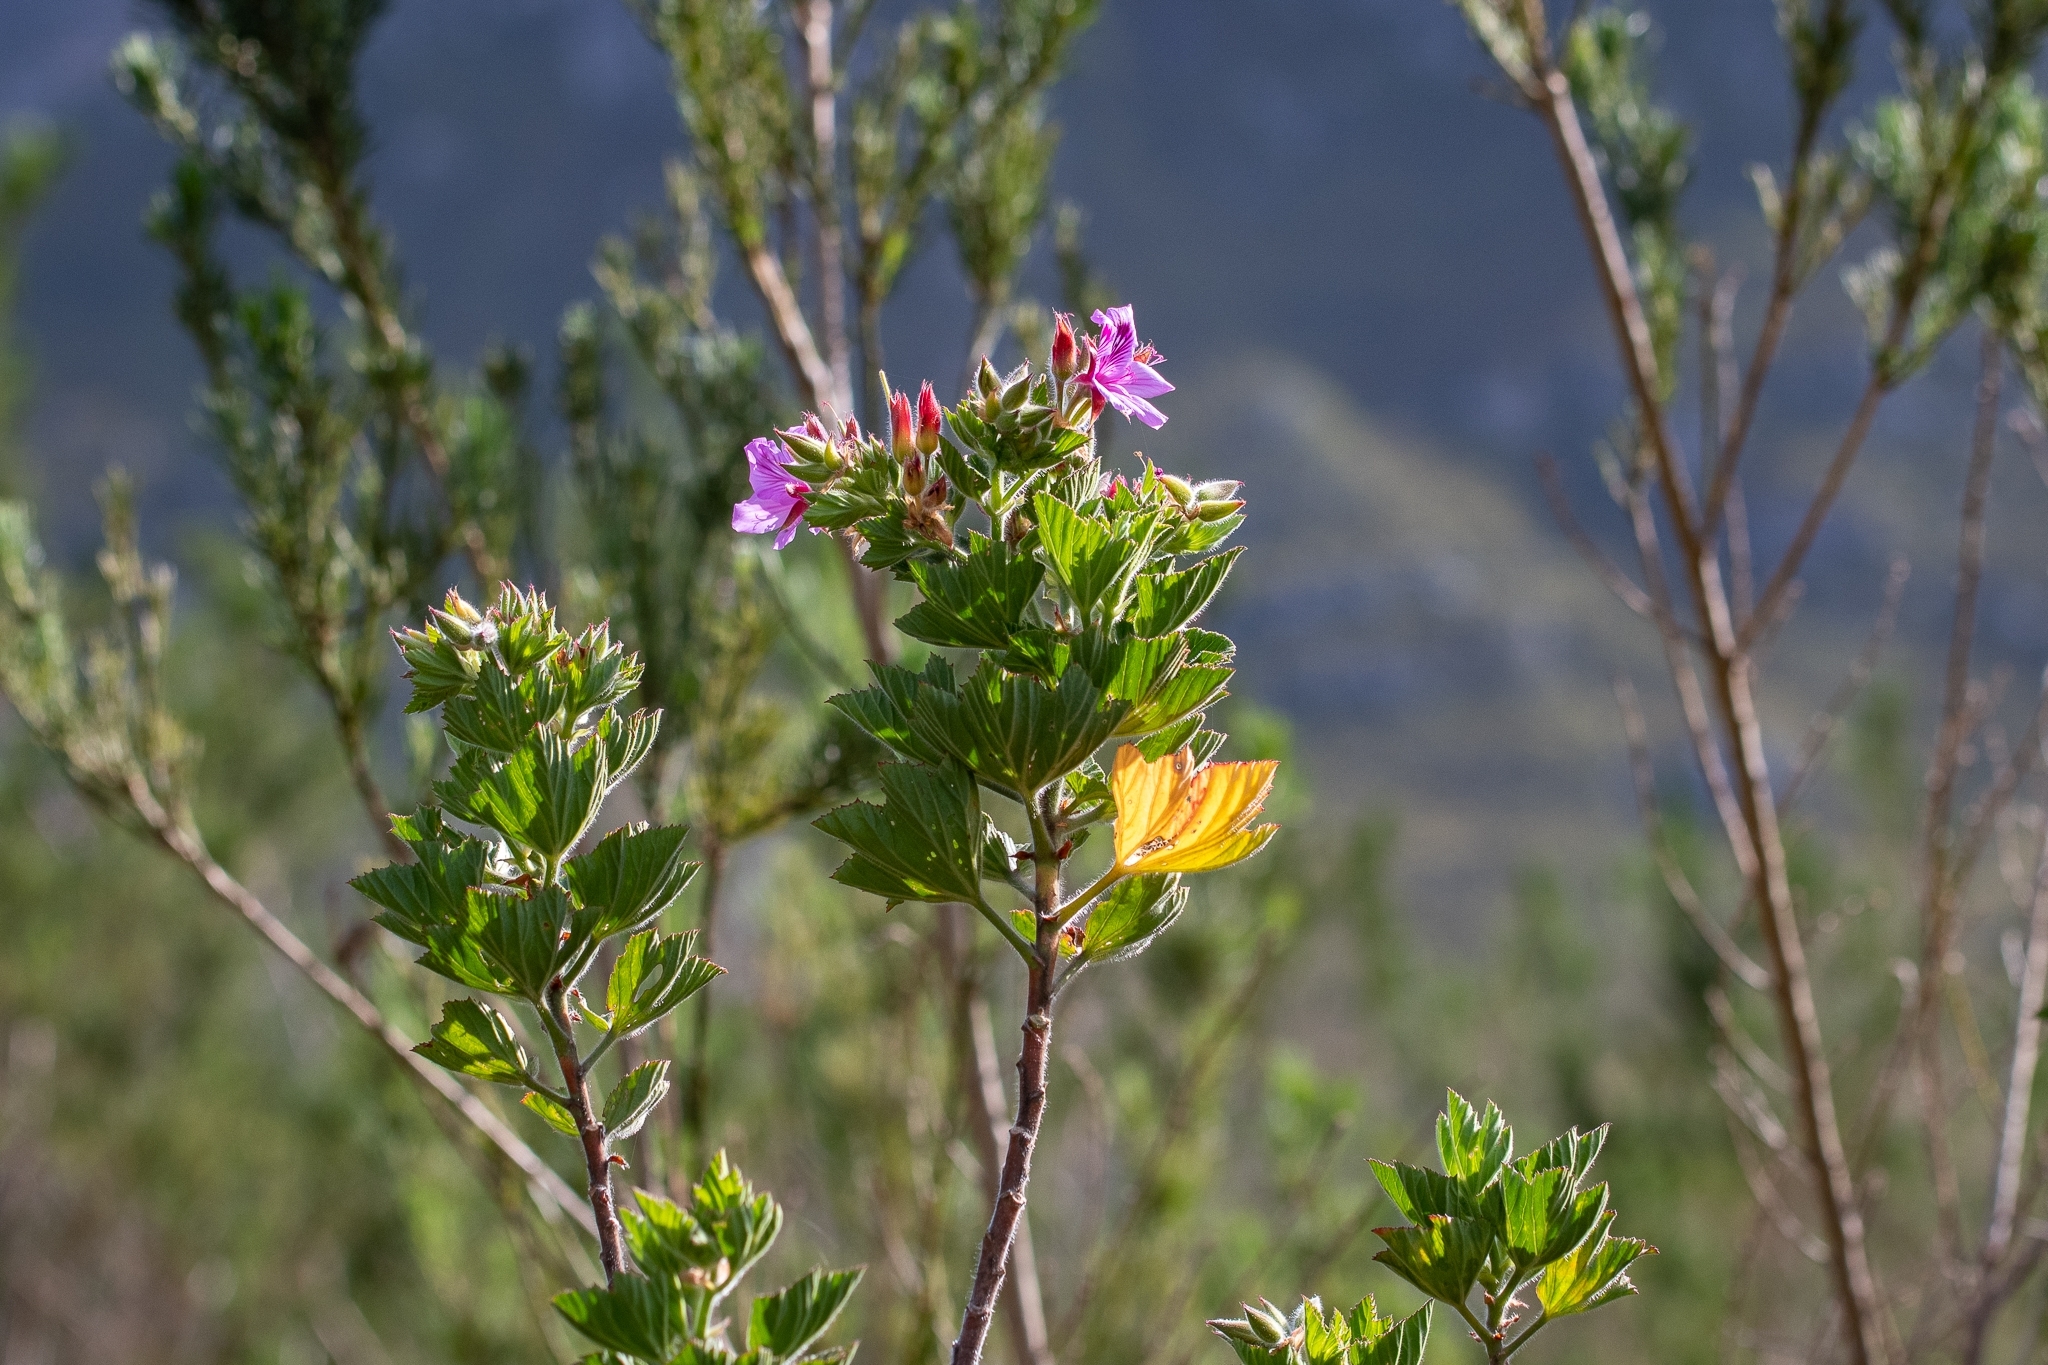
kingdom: Plantae
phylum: Tracheophyta
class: Magnoliopsida
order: Geraniales
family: Geraniaceae
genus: Pelargonium
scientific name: Pelargonium cucullatum
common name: Tree pelargonium
